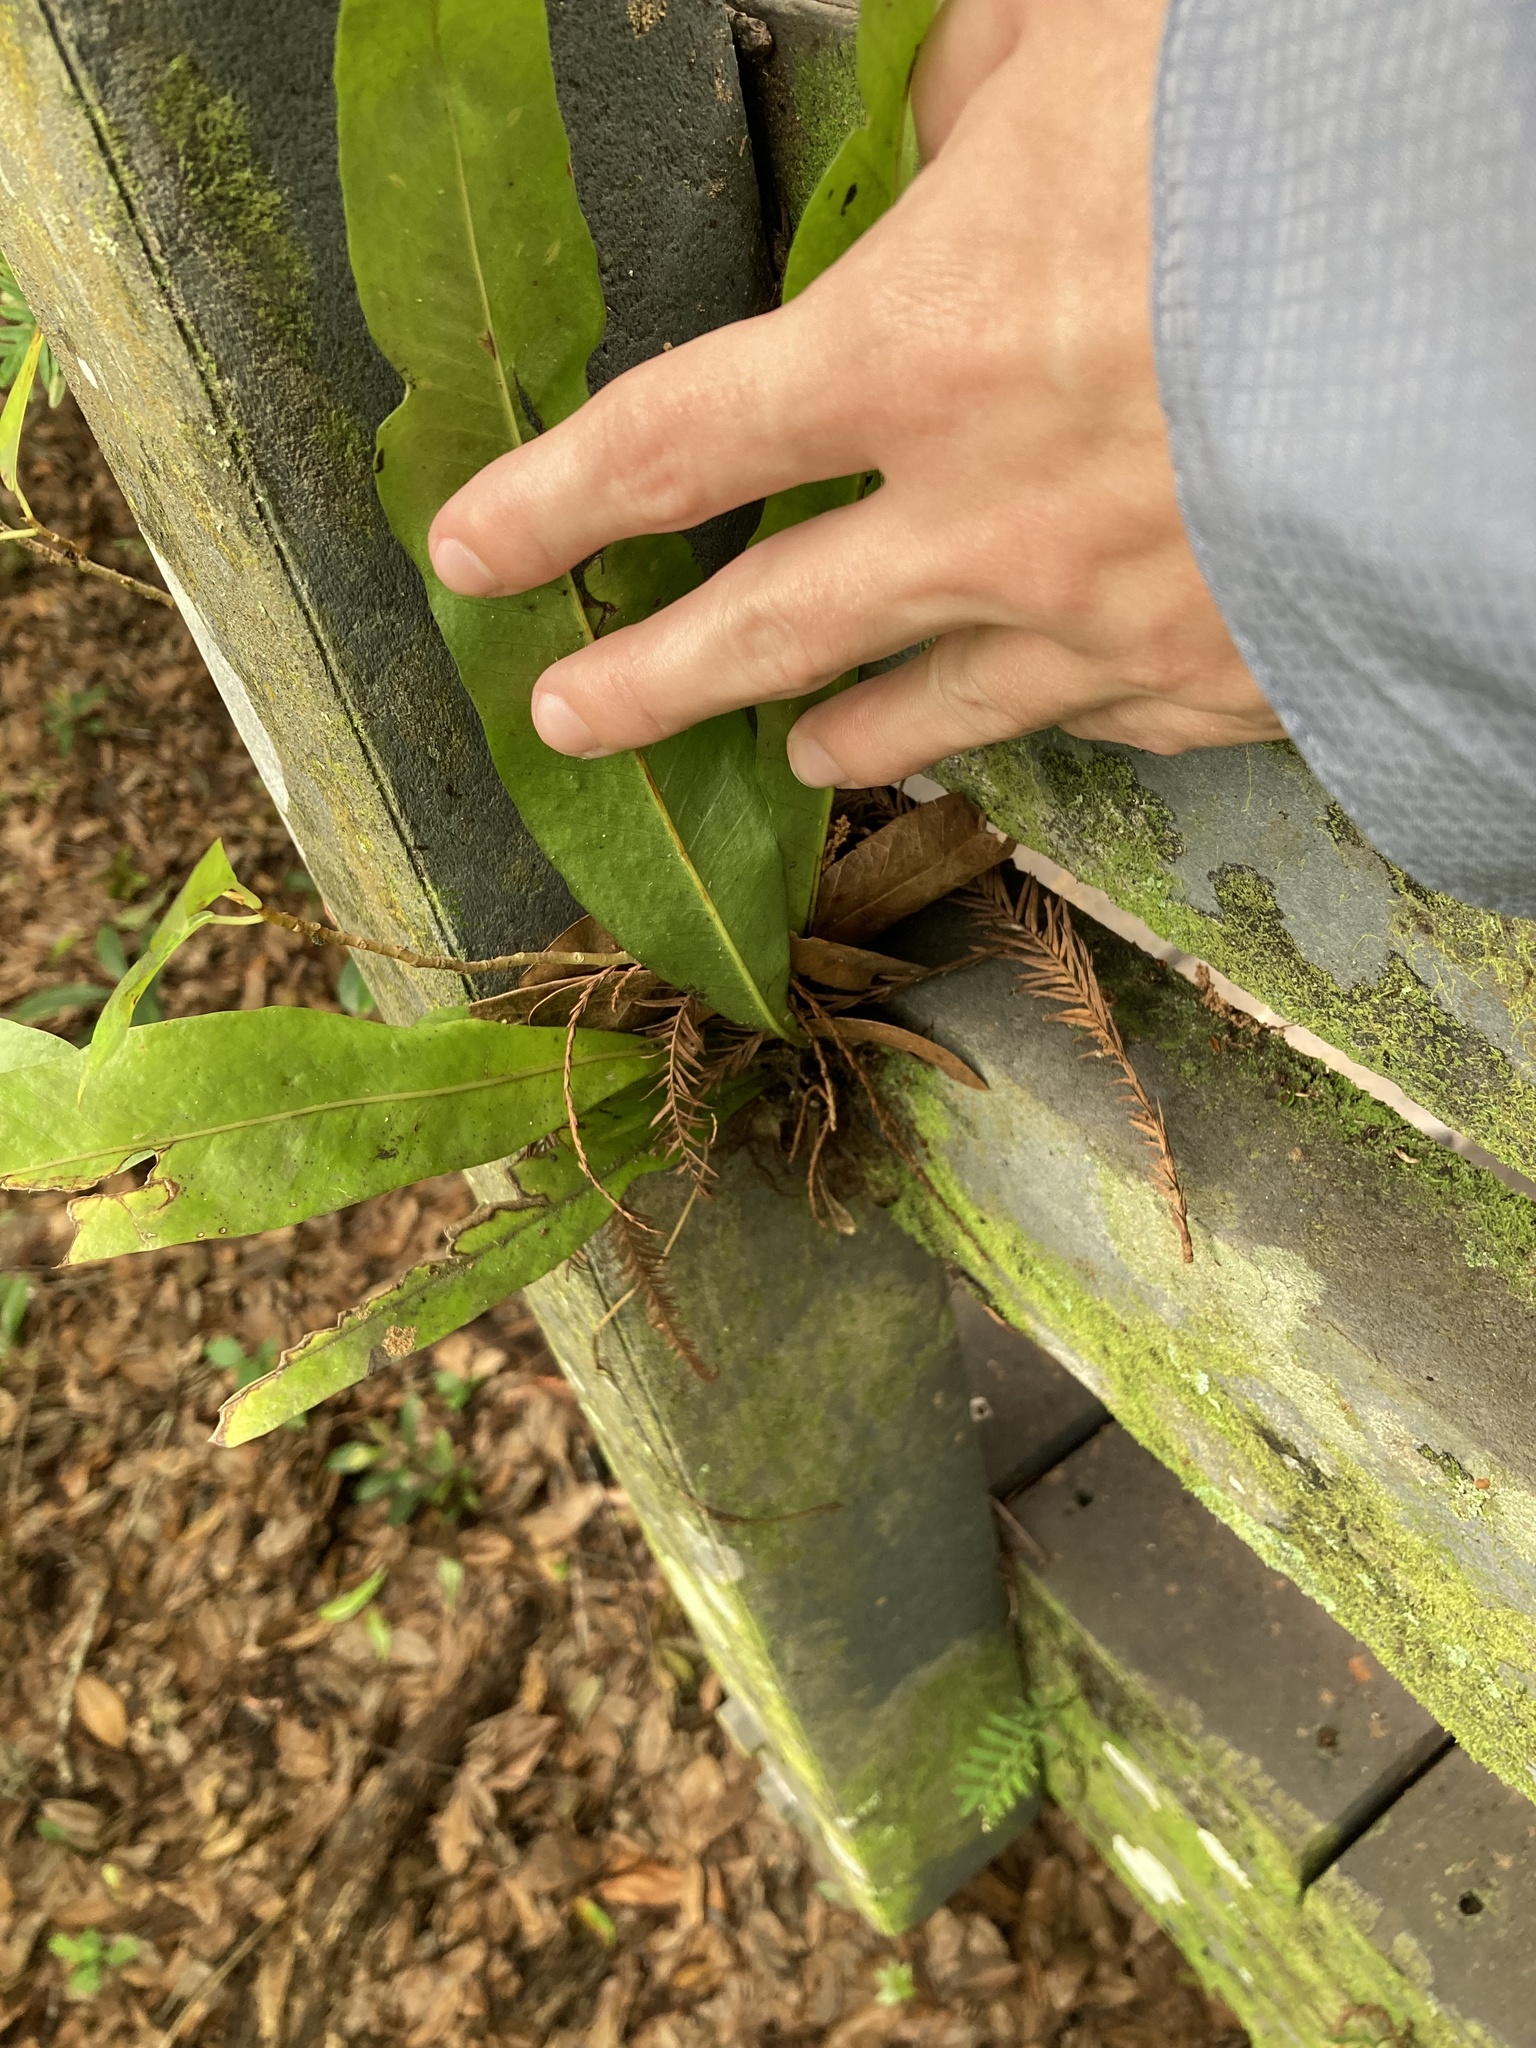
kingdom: Plantae
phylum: Tracheophyta
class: Polypodiopsida
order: Polypodiales
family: Polypodiaceae
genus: Campyloneurum
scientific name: Campyloneurum phyllitidis
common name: Cow-tongue fern
